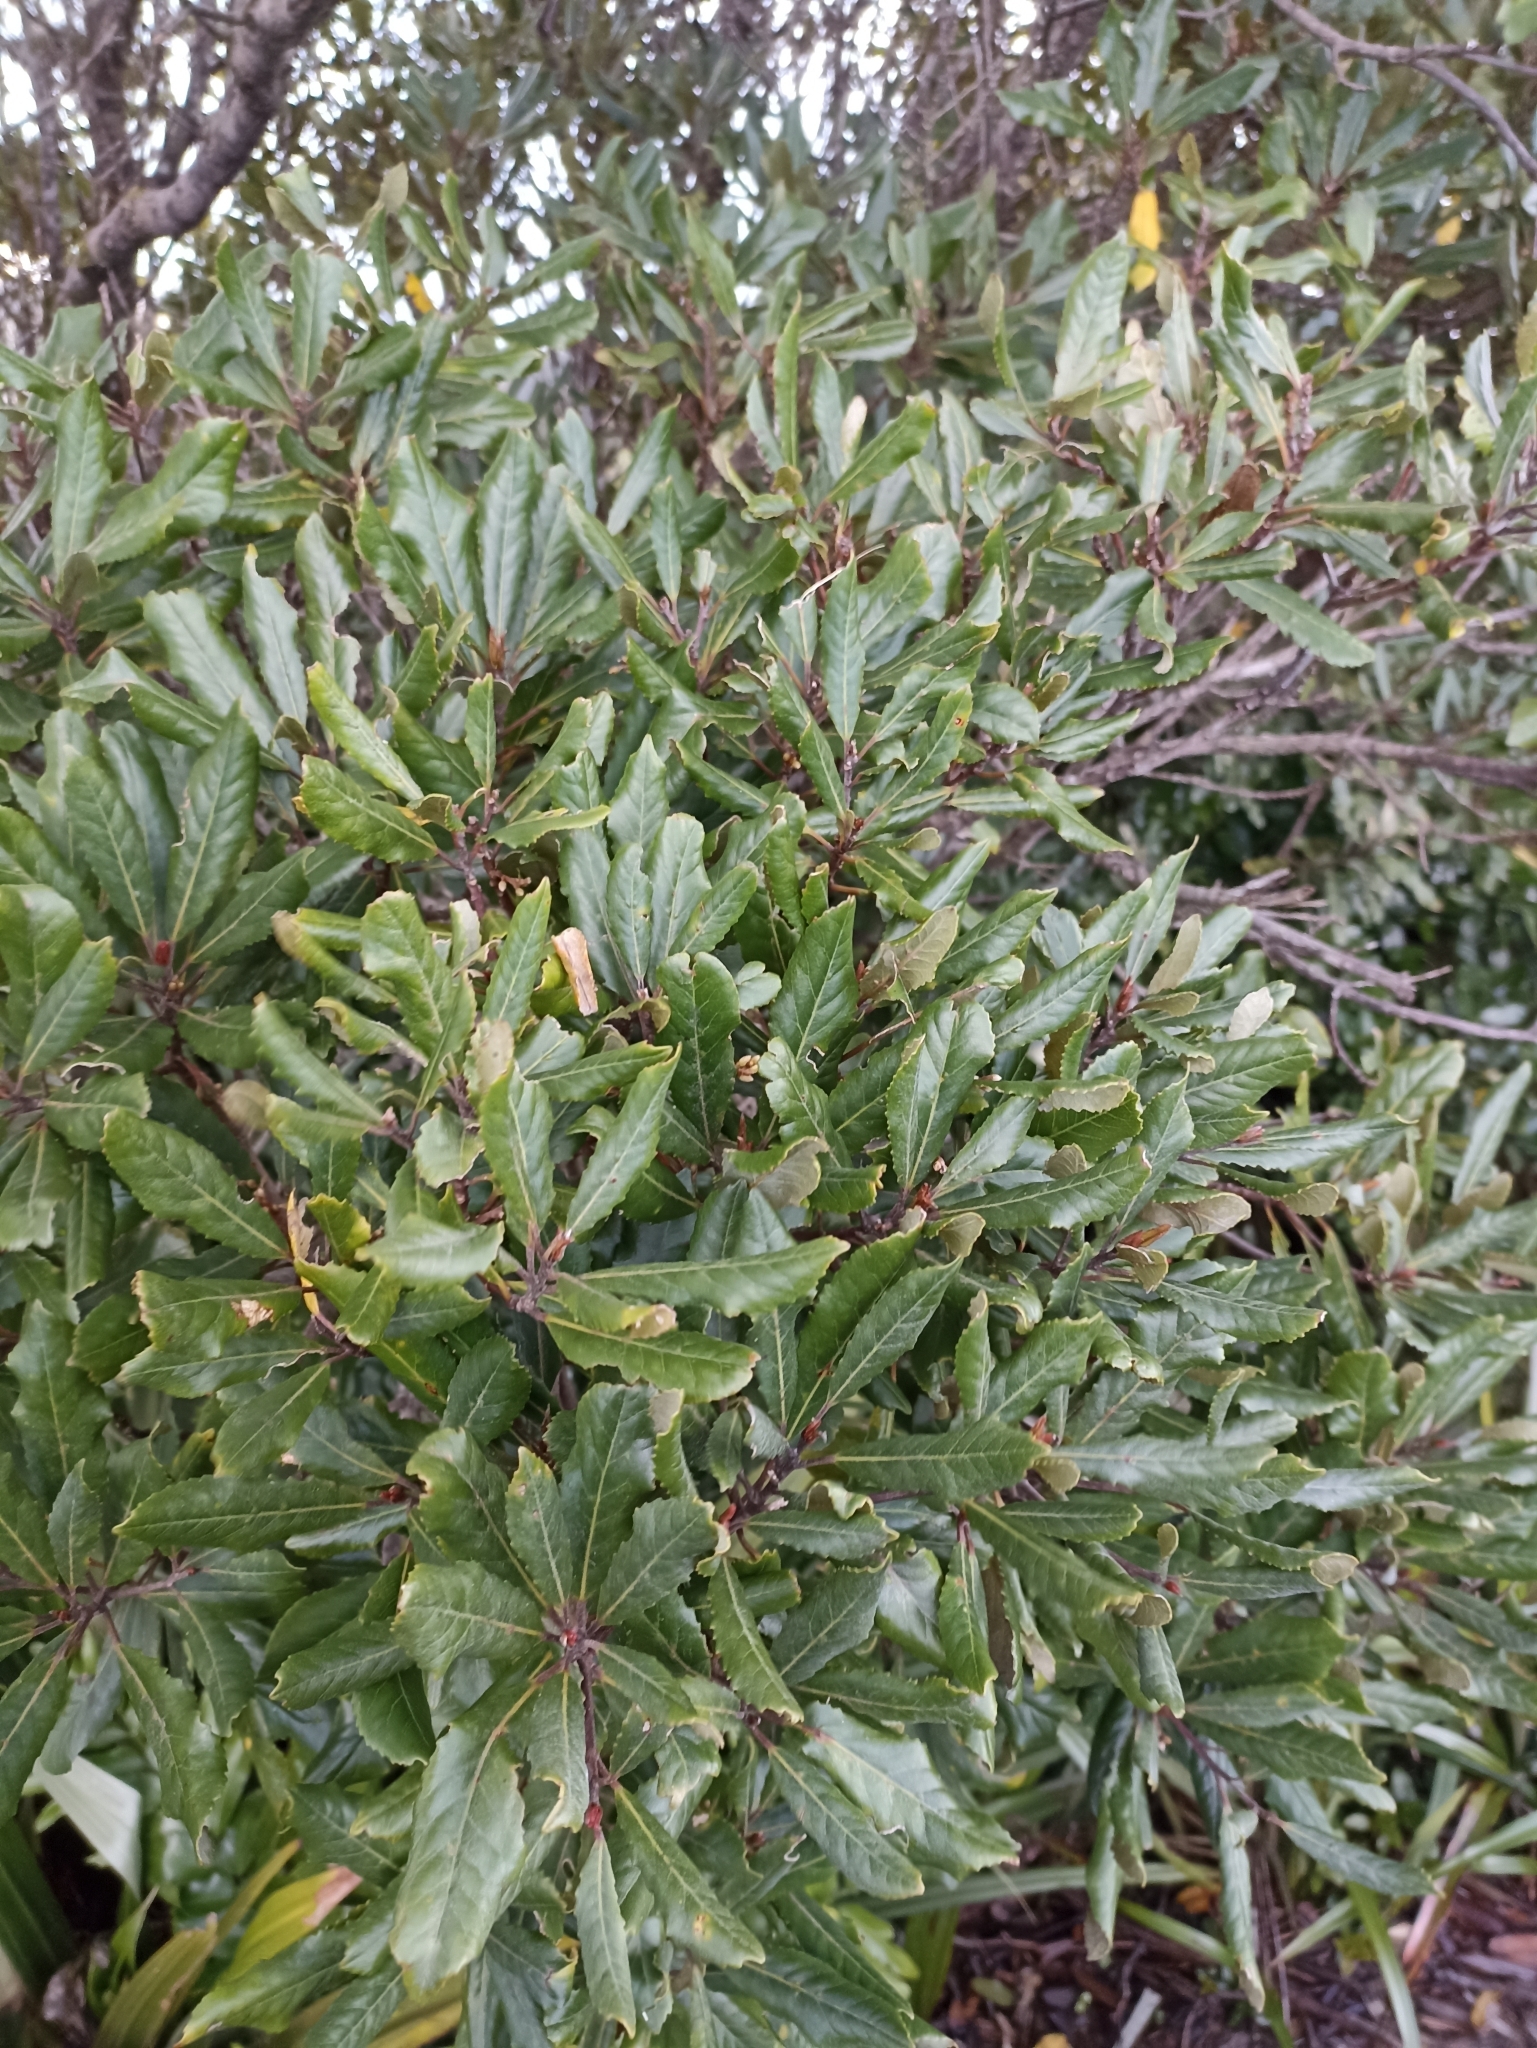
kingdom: Plantae
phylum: Tracheophyta
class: Magnoliopsida
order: Oxalidales
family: Elaeocarpaceae
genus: Elaeocarpus
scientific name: Elaeocarpus dentatus
